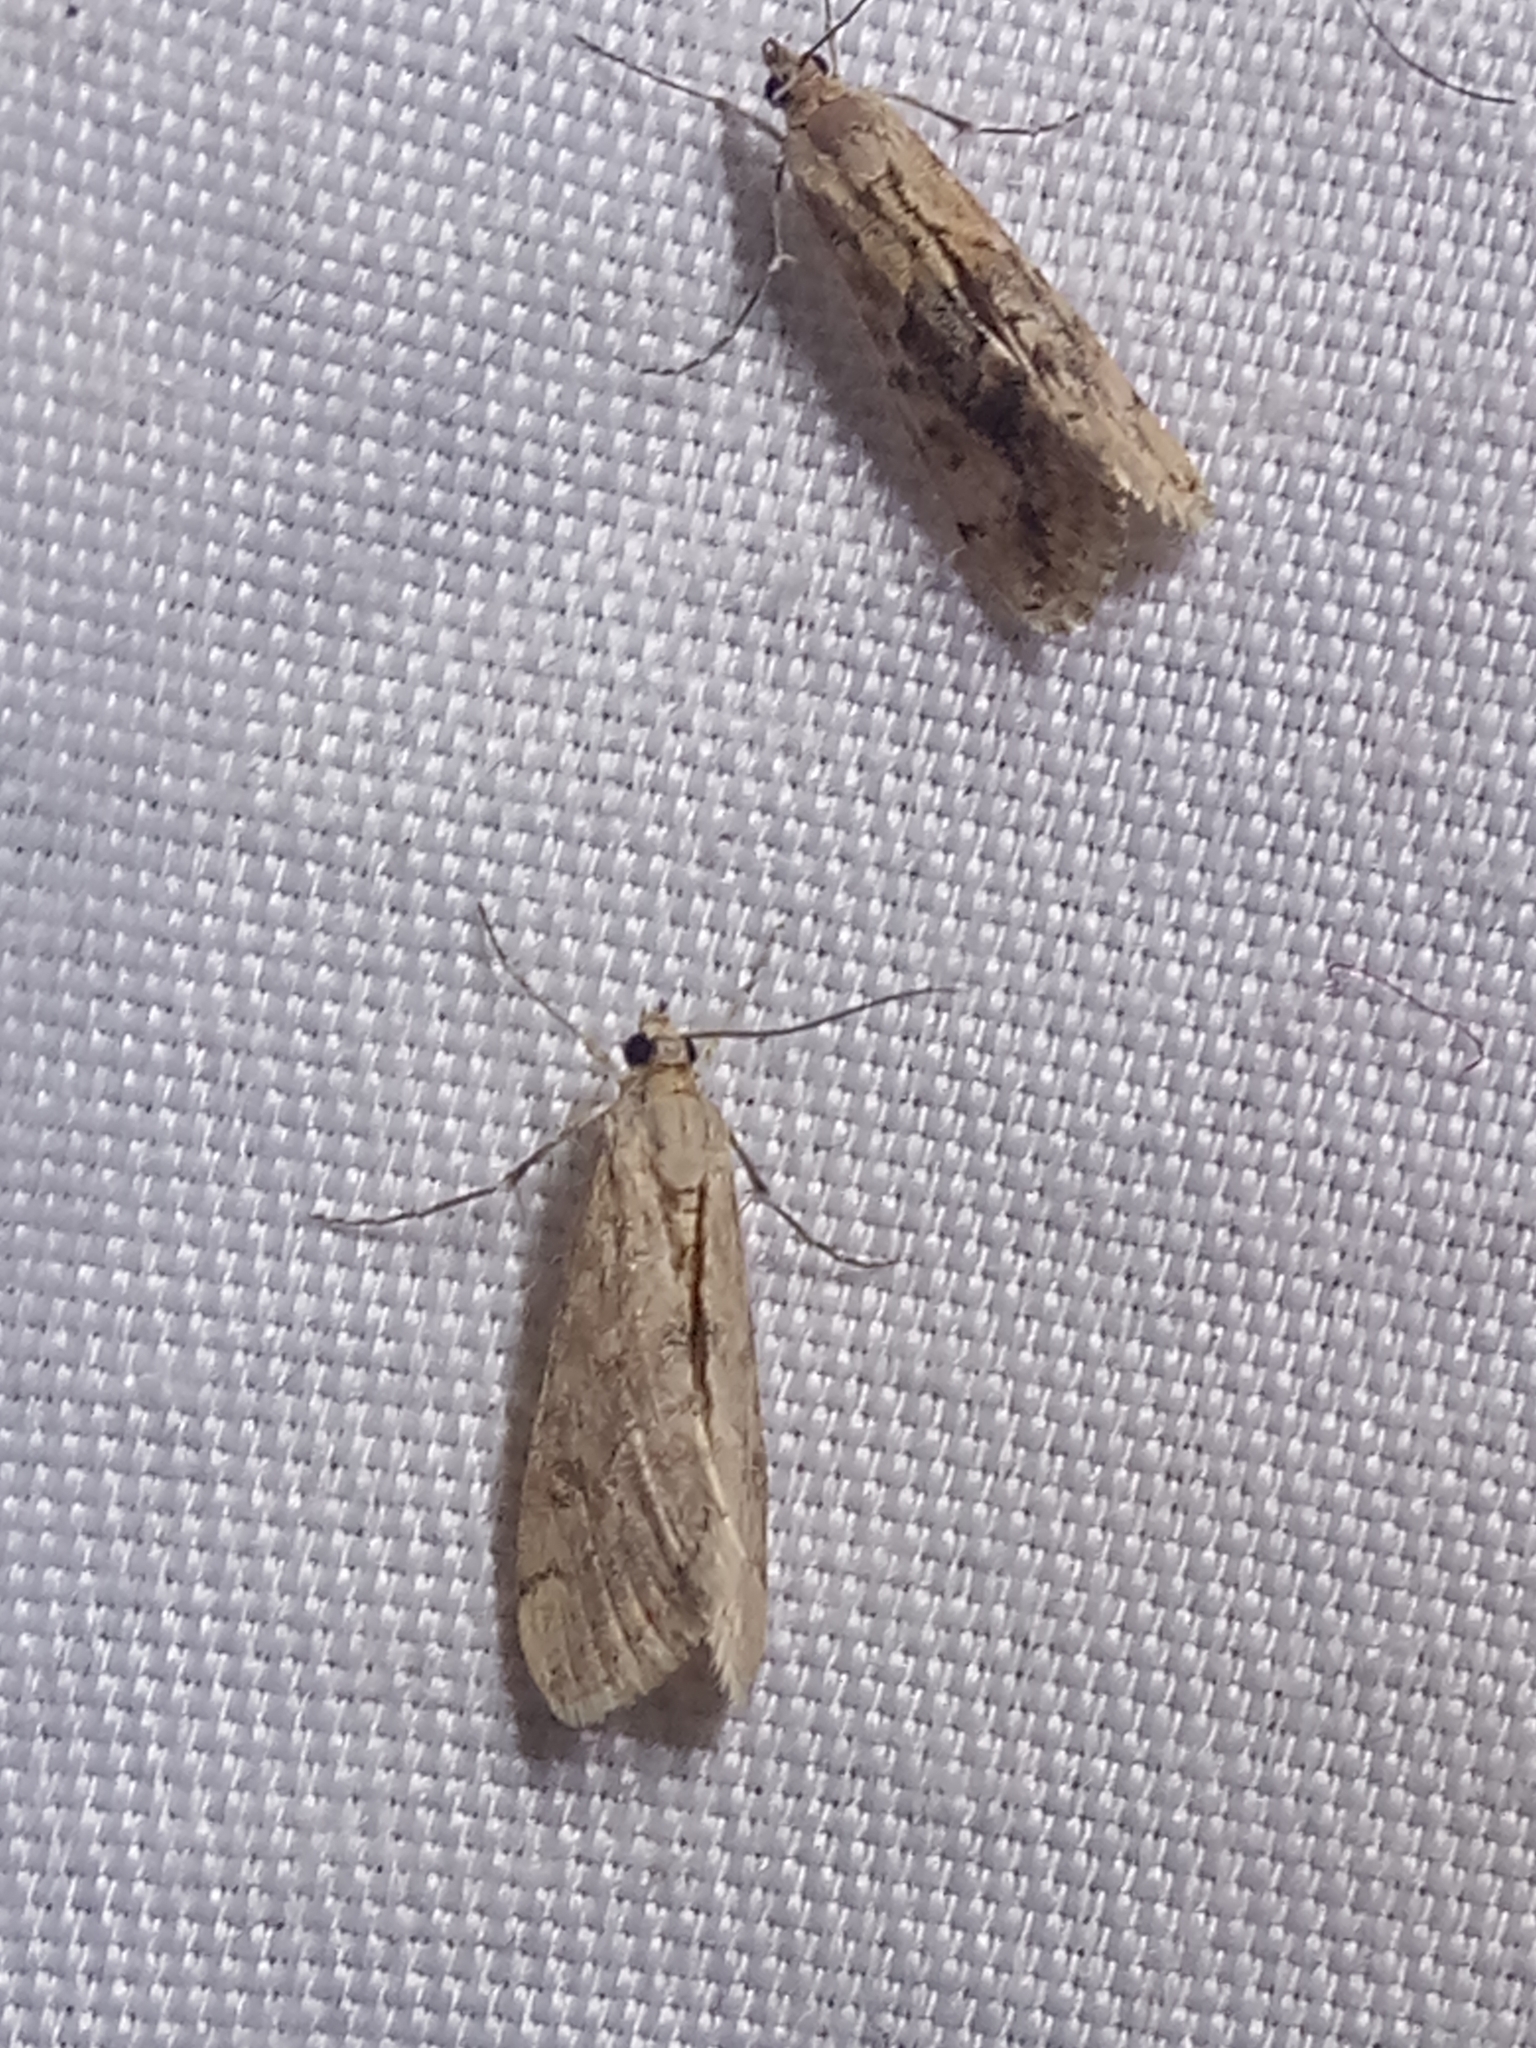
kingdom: Animalia
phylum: Arthropoda
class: Insecta
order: Lepidoptera
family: Crambidae
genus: Cornifrons
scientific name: Cornifrons ulceratalis
